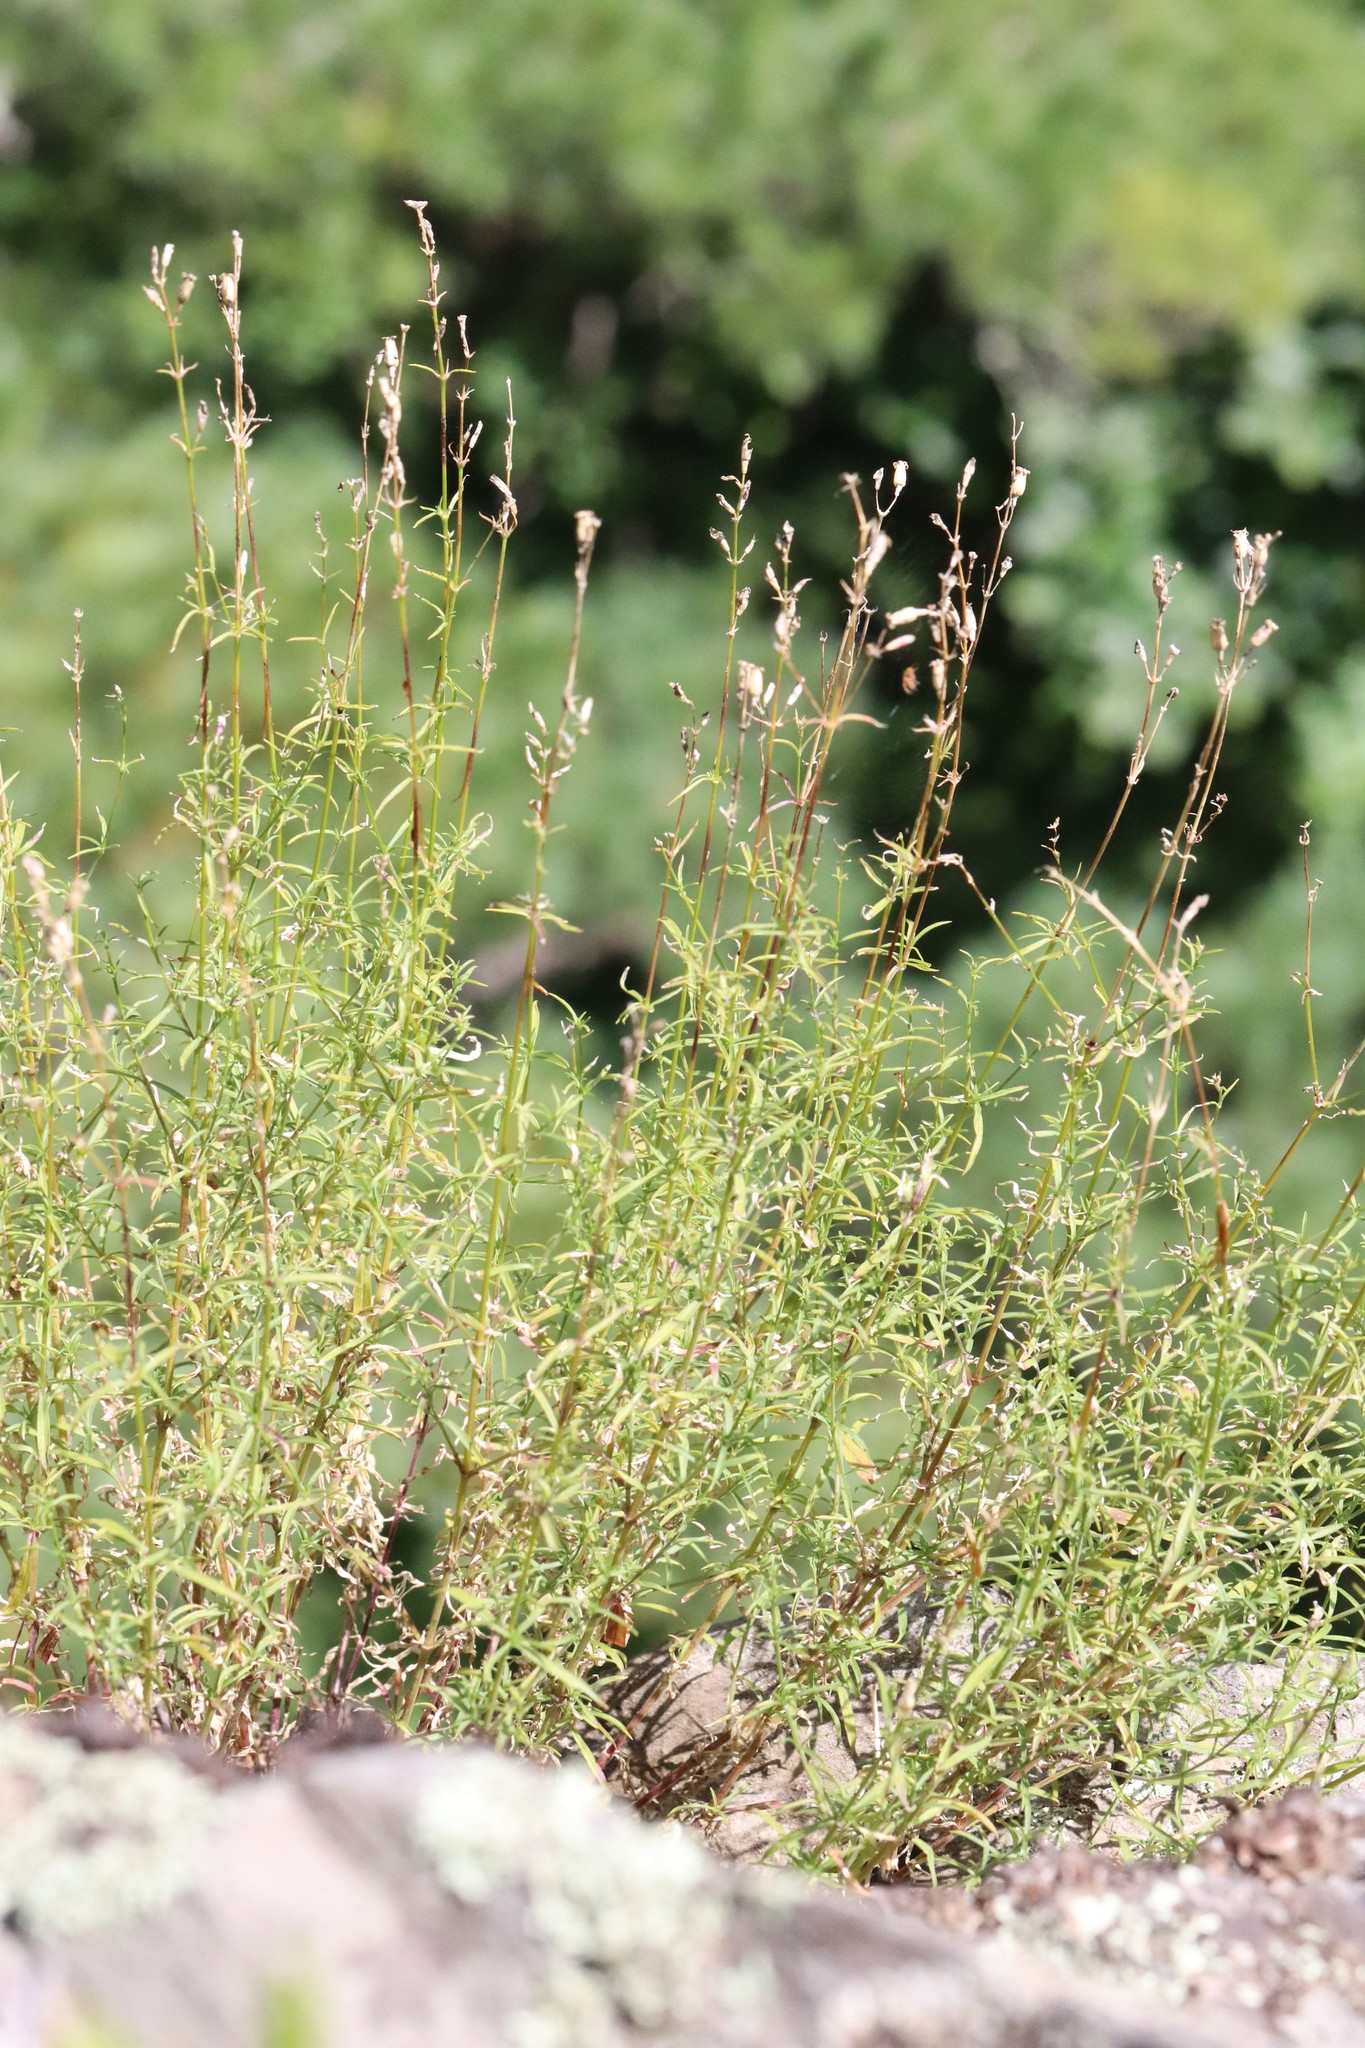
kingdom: Plantae
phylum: Tracheophyta
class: Magnoliopsida
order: Caryophyllales
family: Caryophyllaceae
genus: Silene
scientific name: Silene foliosa
